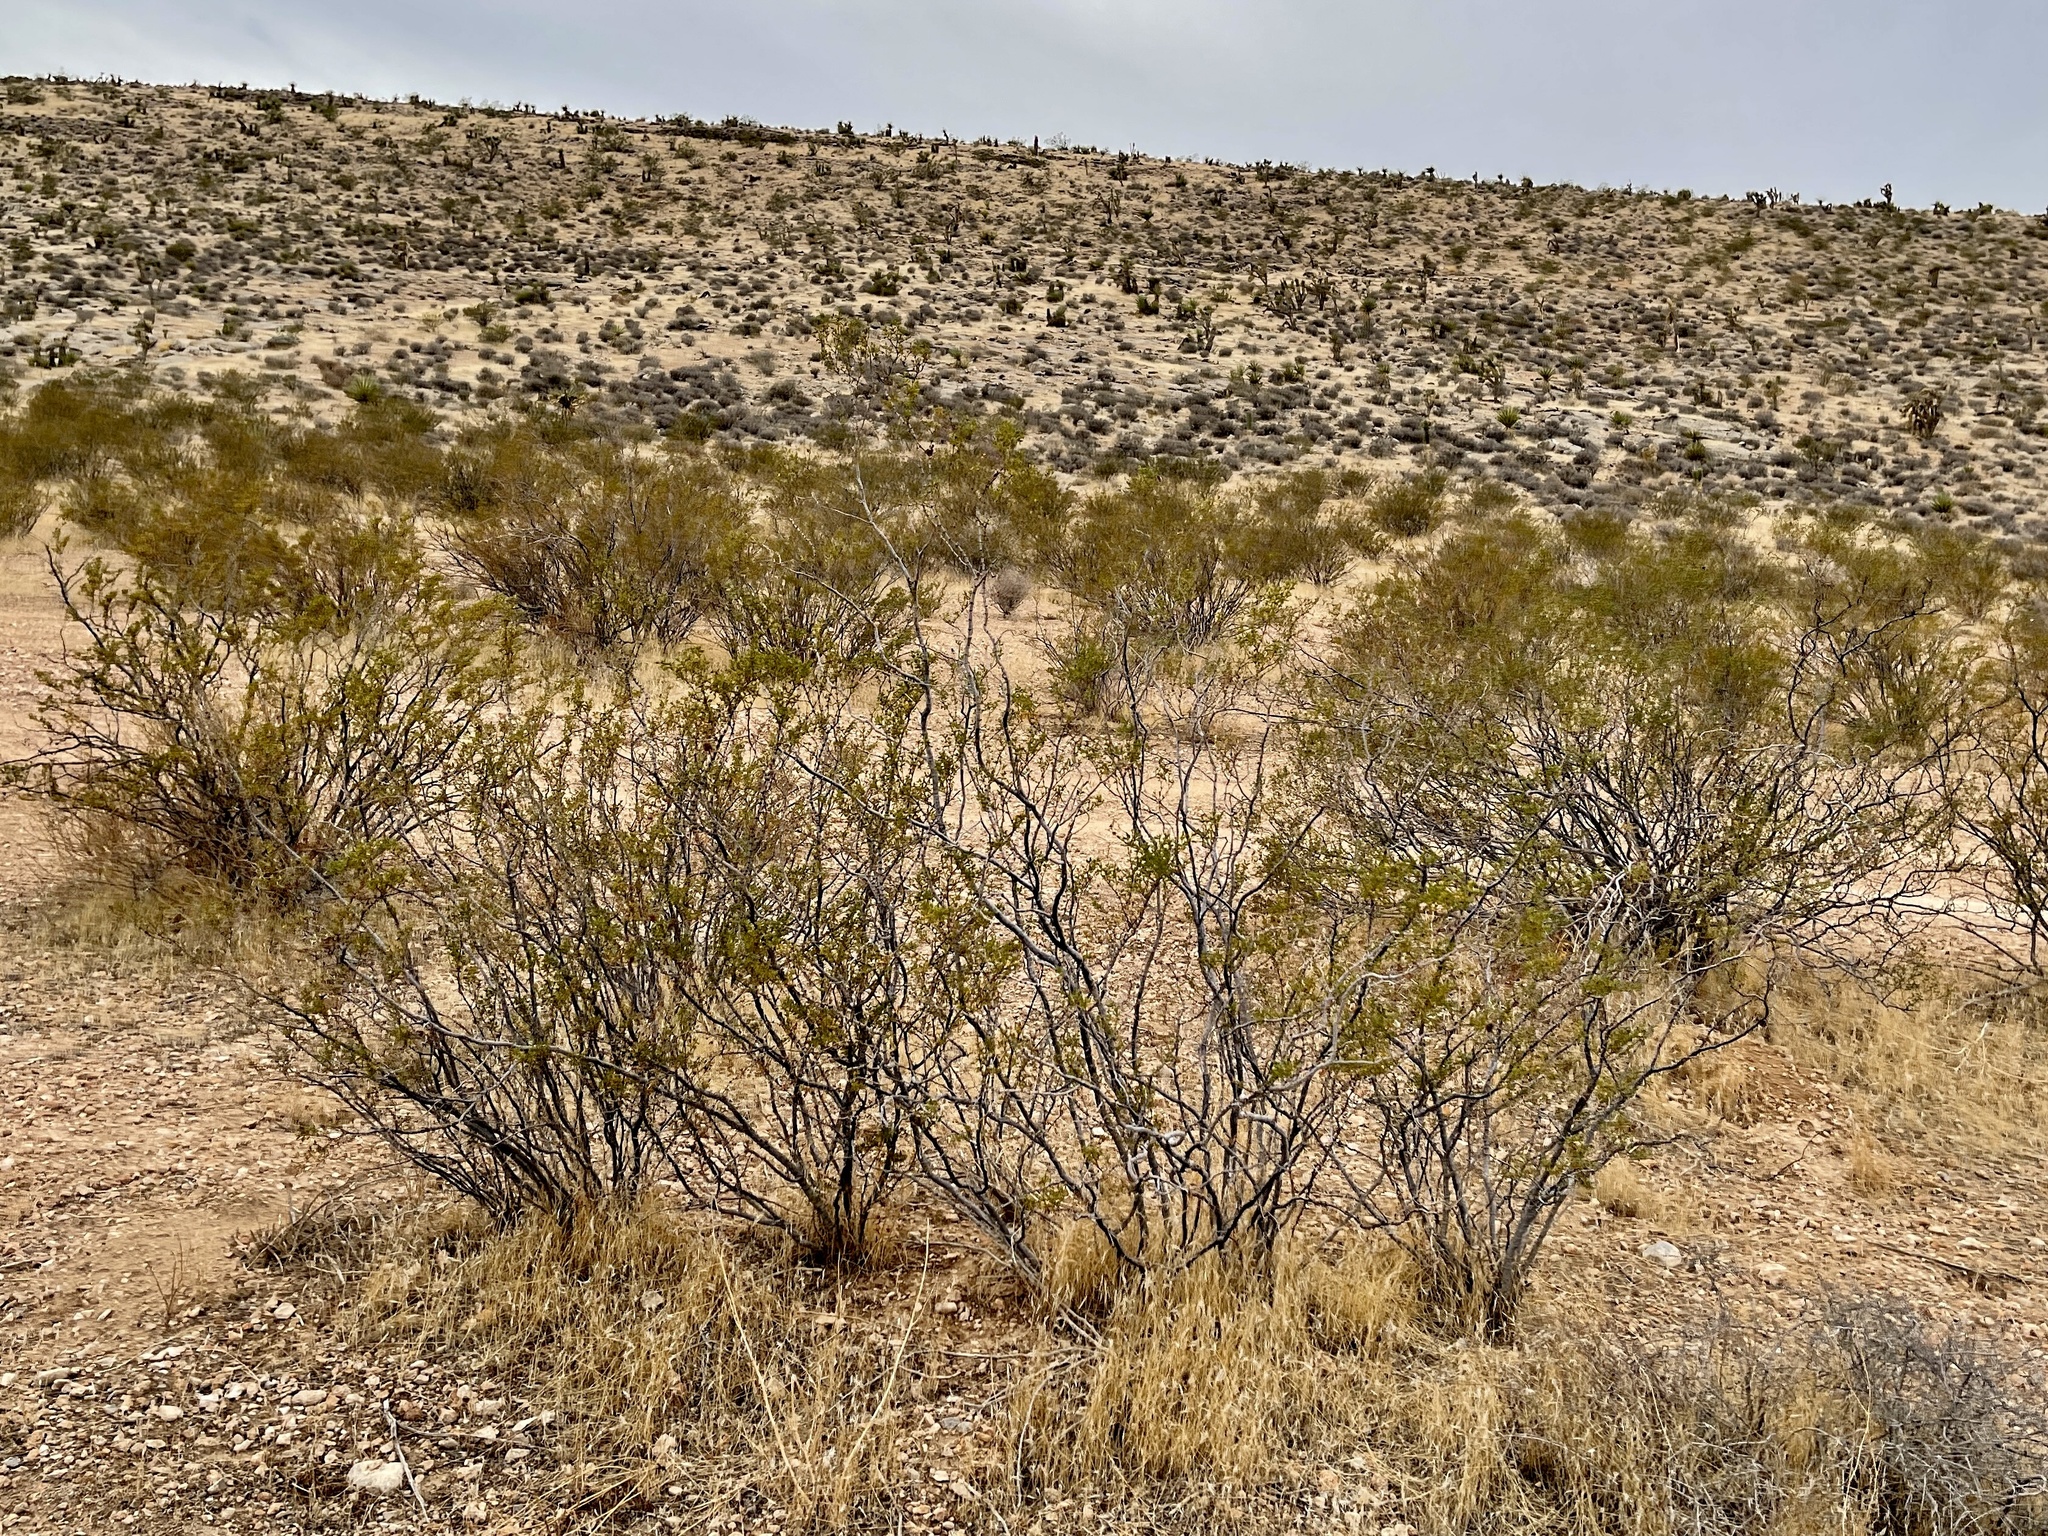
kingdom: Plantae
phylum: Tracheophyta
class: Magnoliopsida
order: Zygophyllales
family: Zygophyllaceae
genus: Larrea
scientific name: Larrea tridentata
